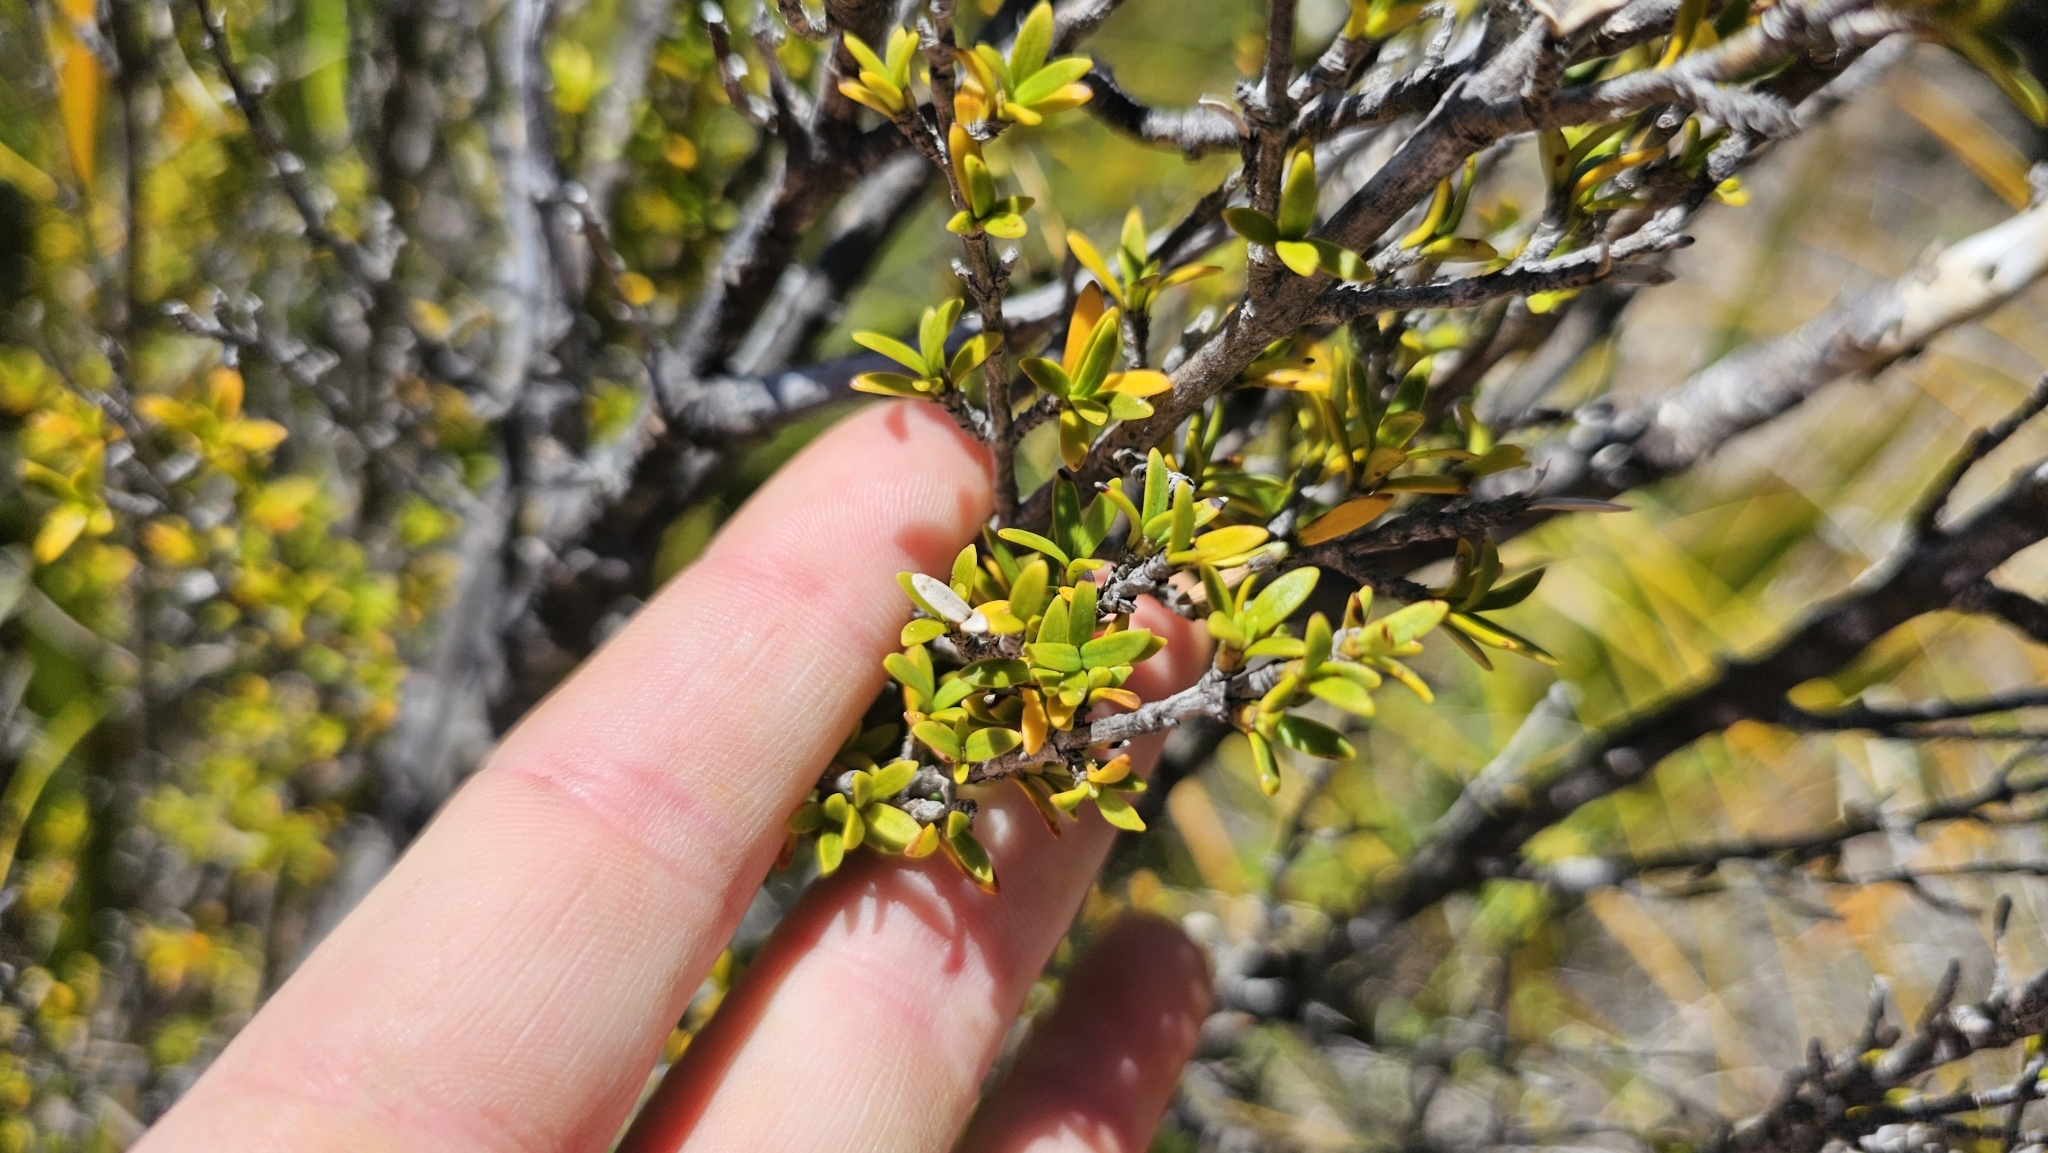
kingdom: Plantae
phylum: Tracheophyta
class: Magnoliopsida
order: Gentianales
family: Rubiaceae
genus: Coprosma
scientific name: Coprosma pseudocuneata
